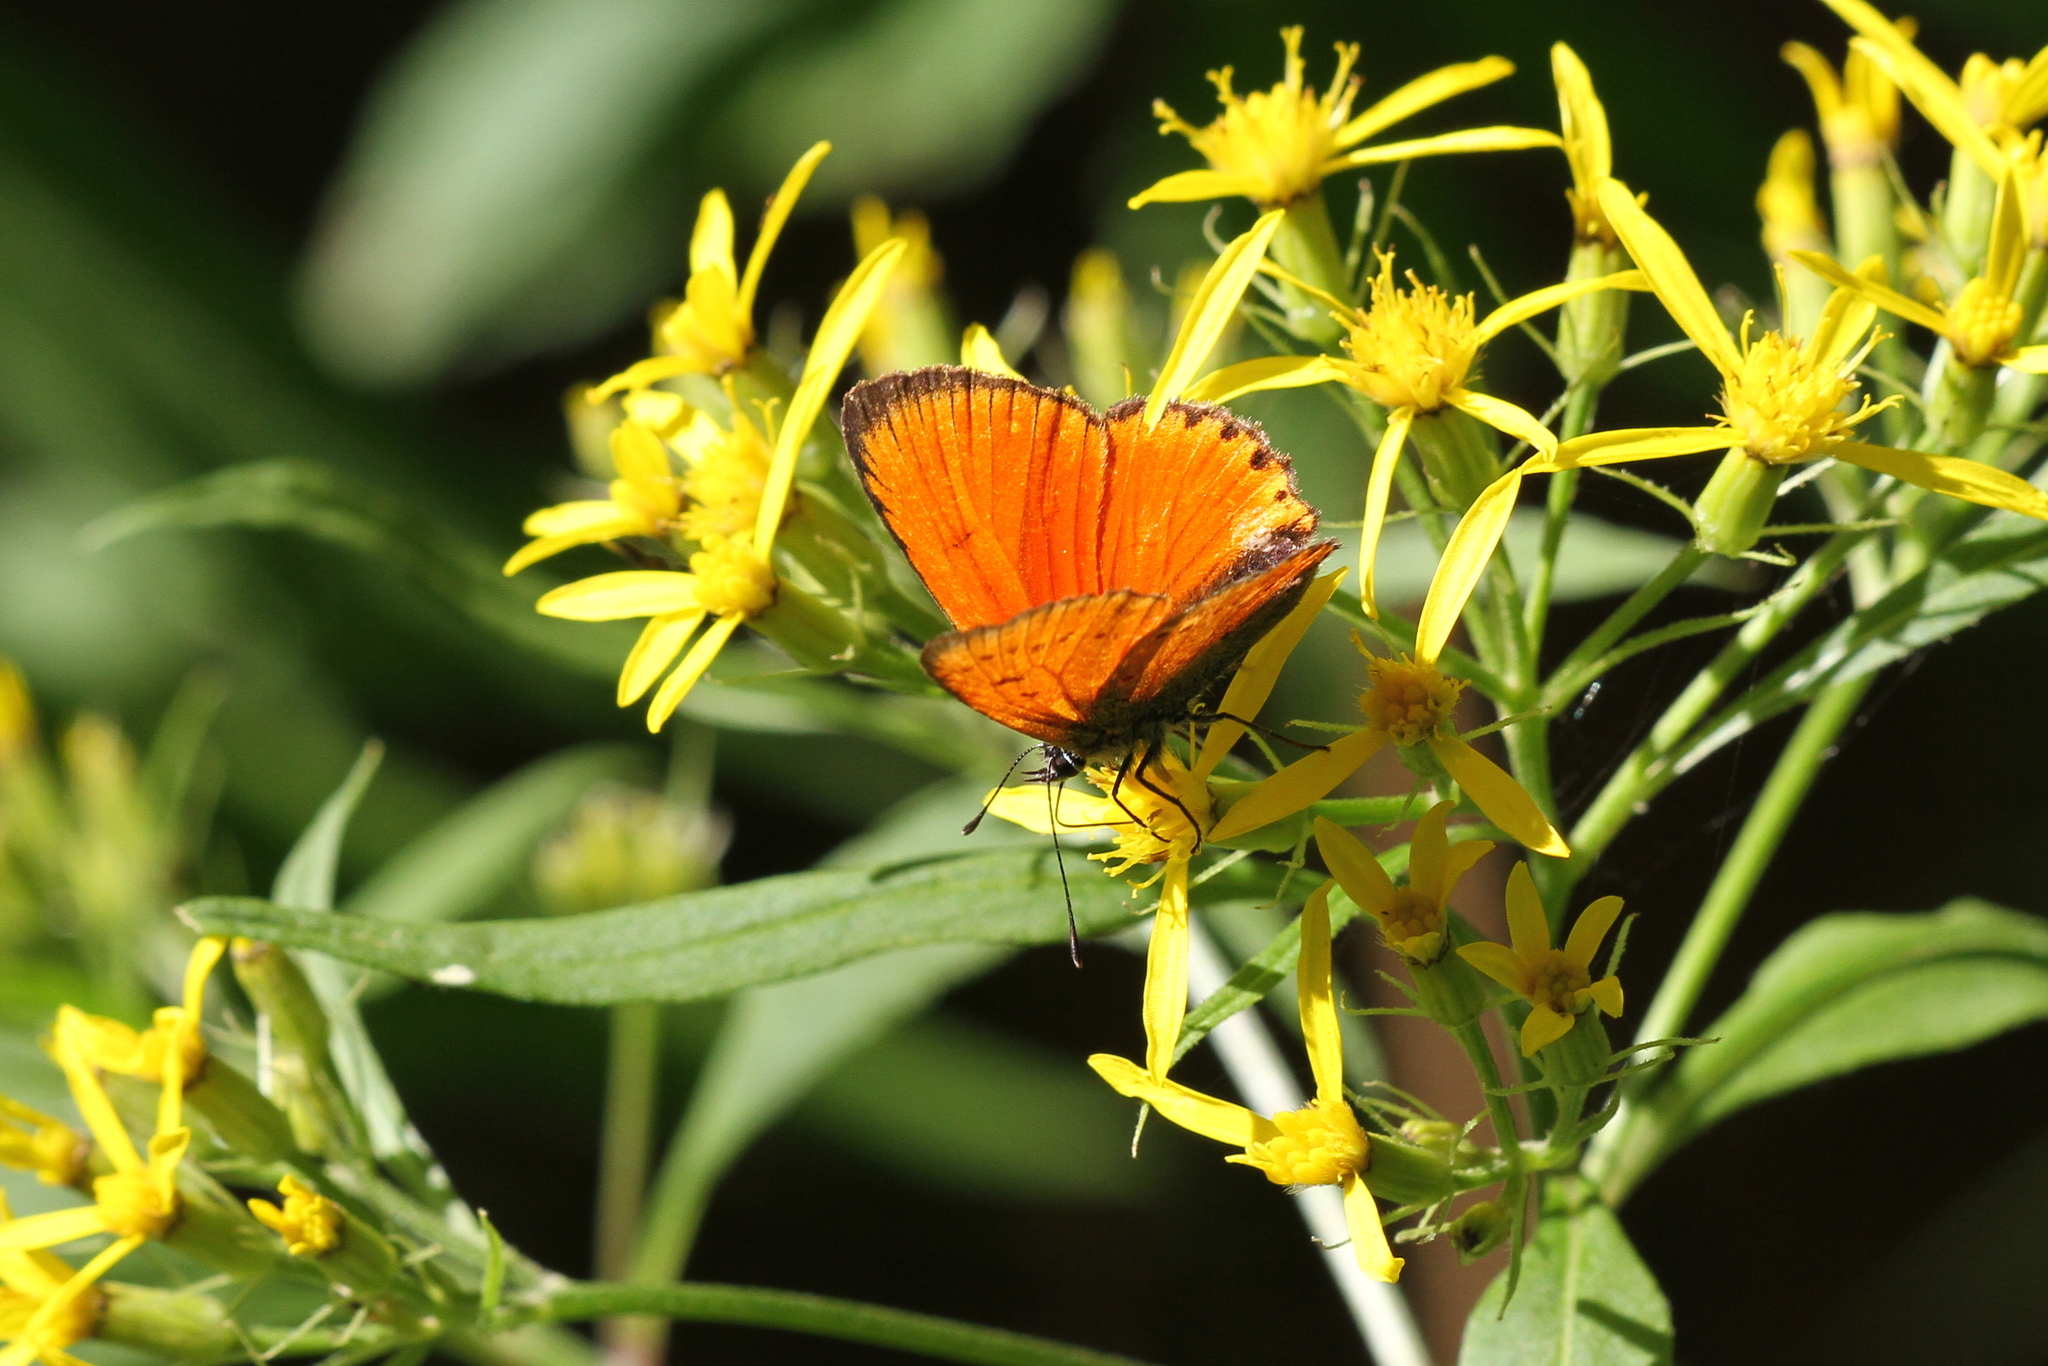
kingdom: Animalia
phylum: Arthropoda
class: Insecta
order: Lepidoptera
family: Lycaenidae
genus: Lycaena
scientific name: Lycaena virgaureae
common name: Scarce copper
